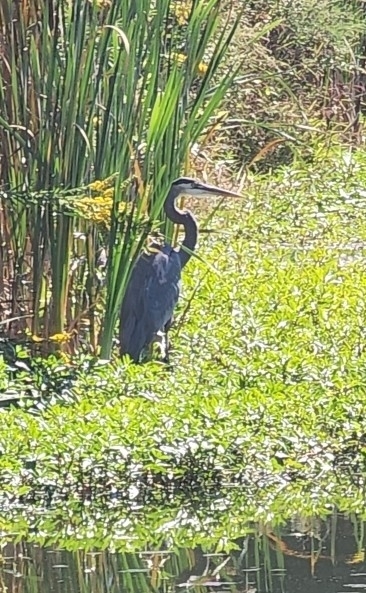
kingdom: Animalia
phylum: Chordata
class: Aves
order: Pelecaniformes
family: Ardeidae
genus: Ardea
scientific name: Ardea herodias
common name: Great blue heron
